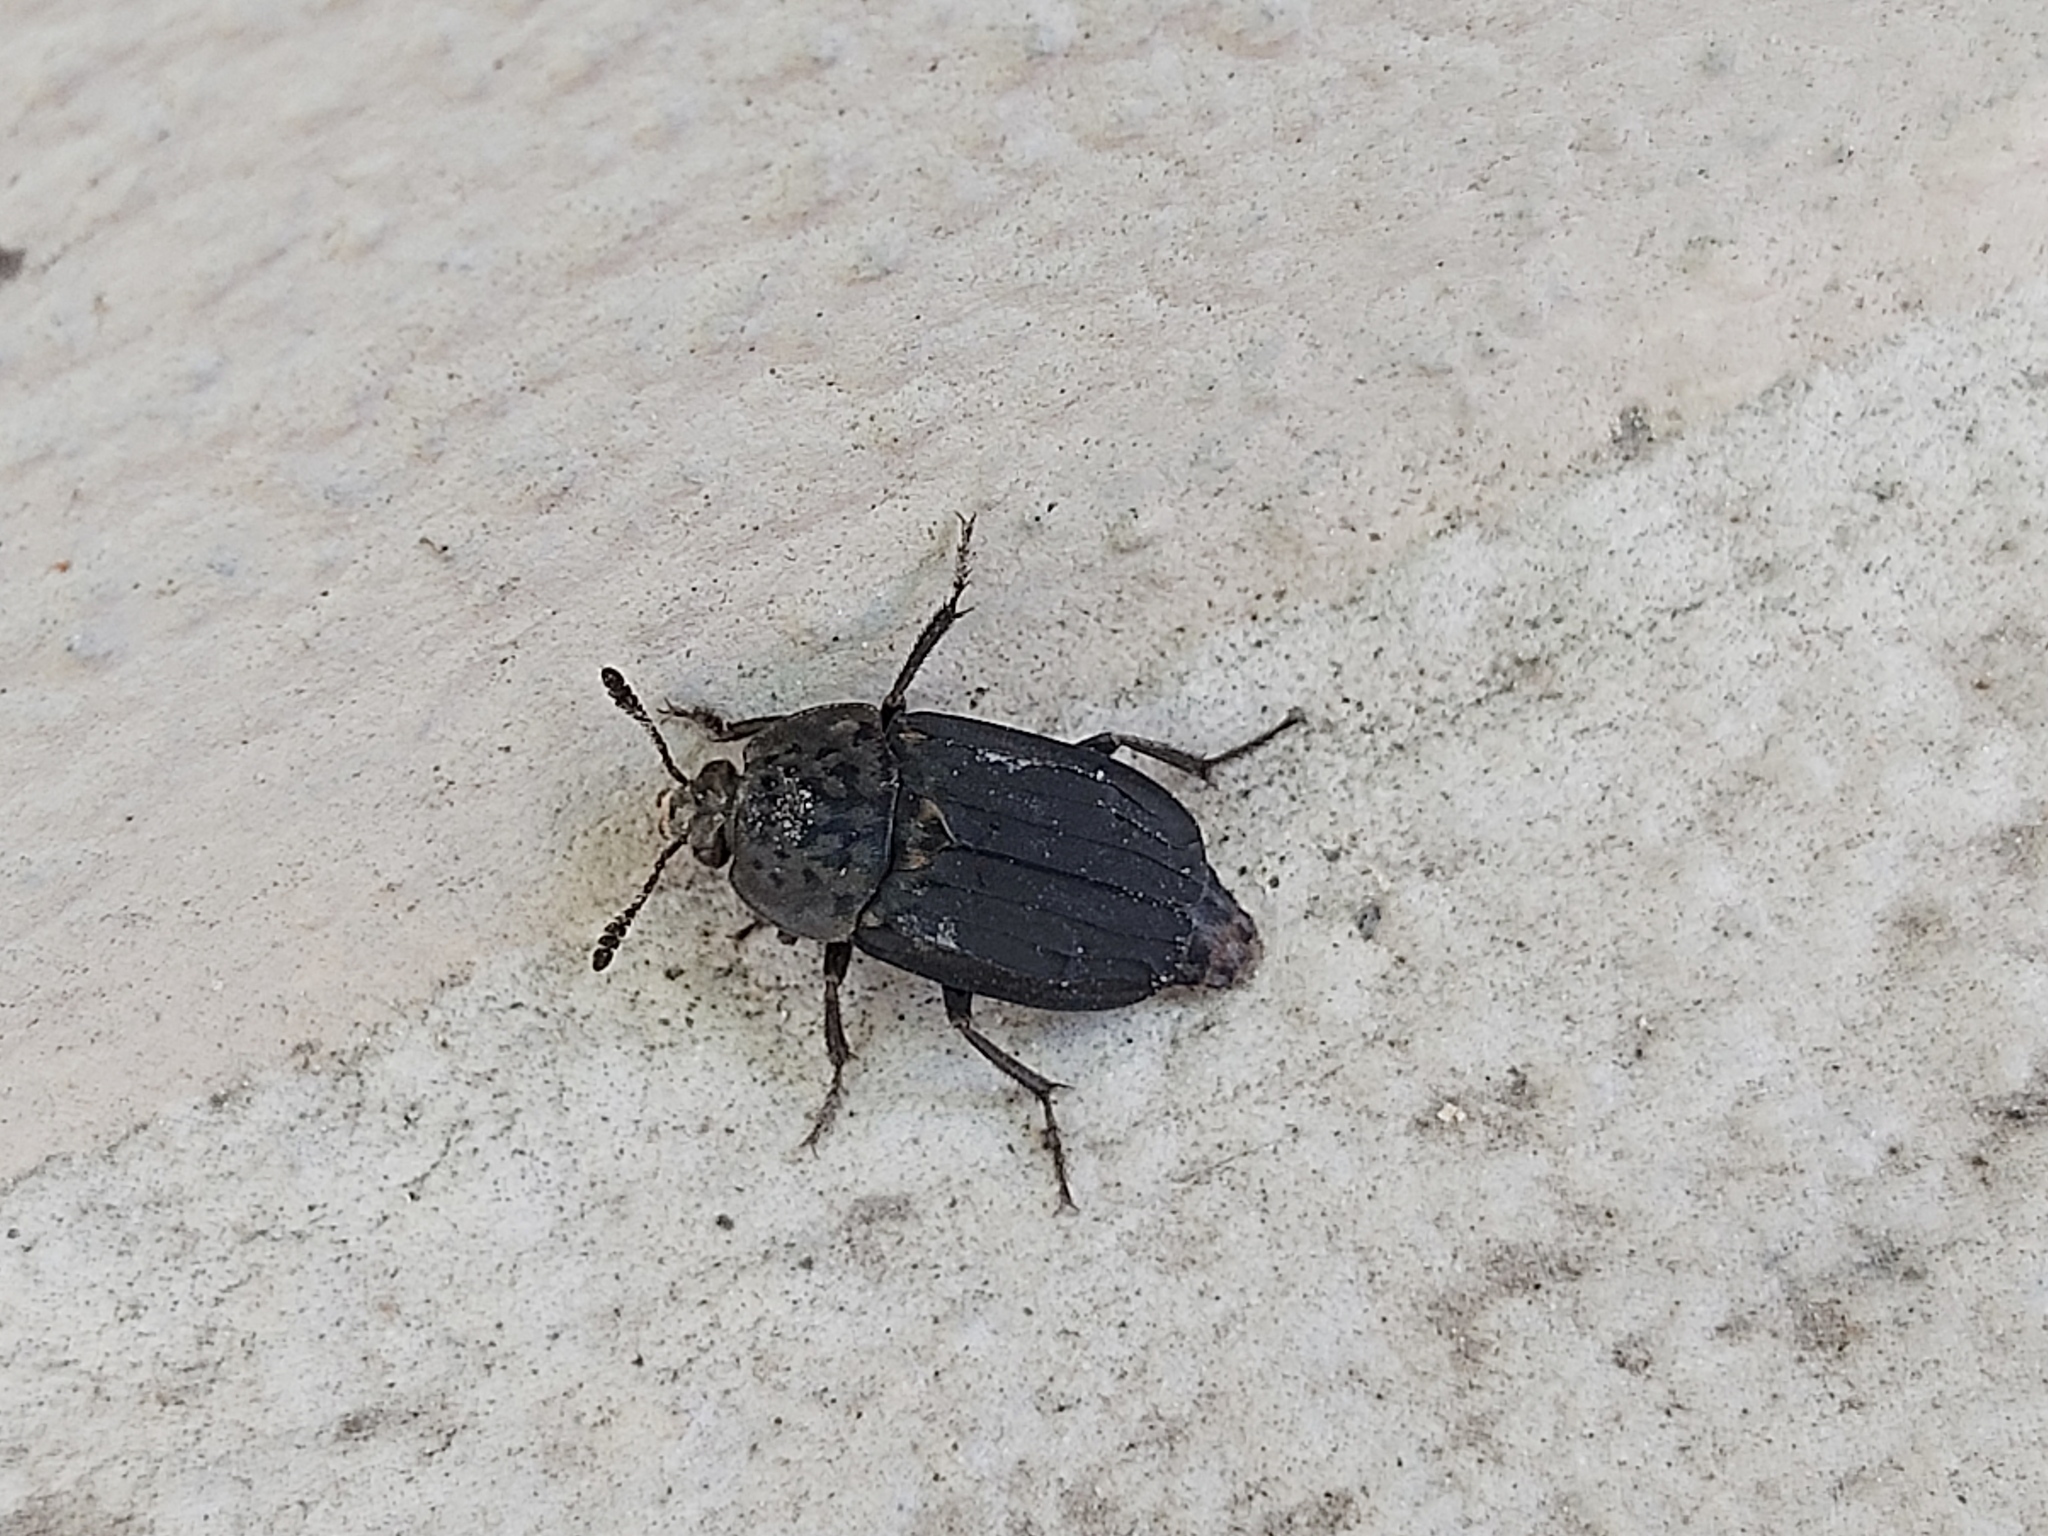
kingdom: Animalia
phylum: Arthropoda
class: Insecta
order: Coleoptera
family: Staphylinidae
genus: Thanatophilus
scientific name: Thanatophilus sinuatus
